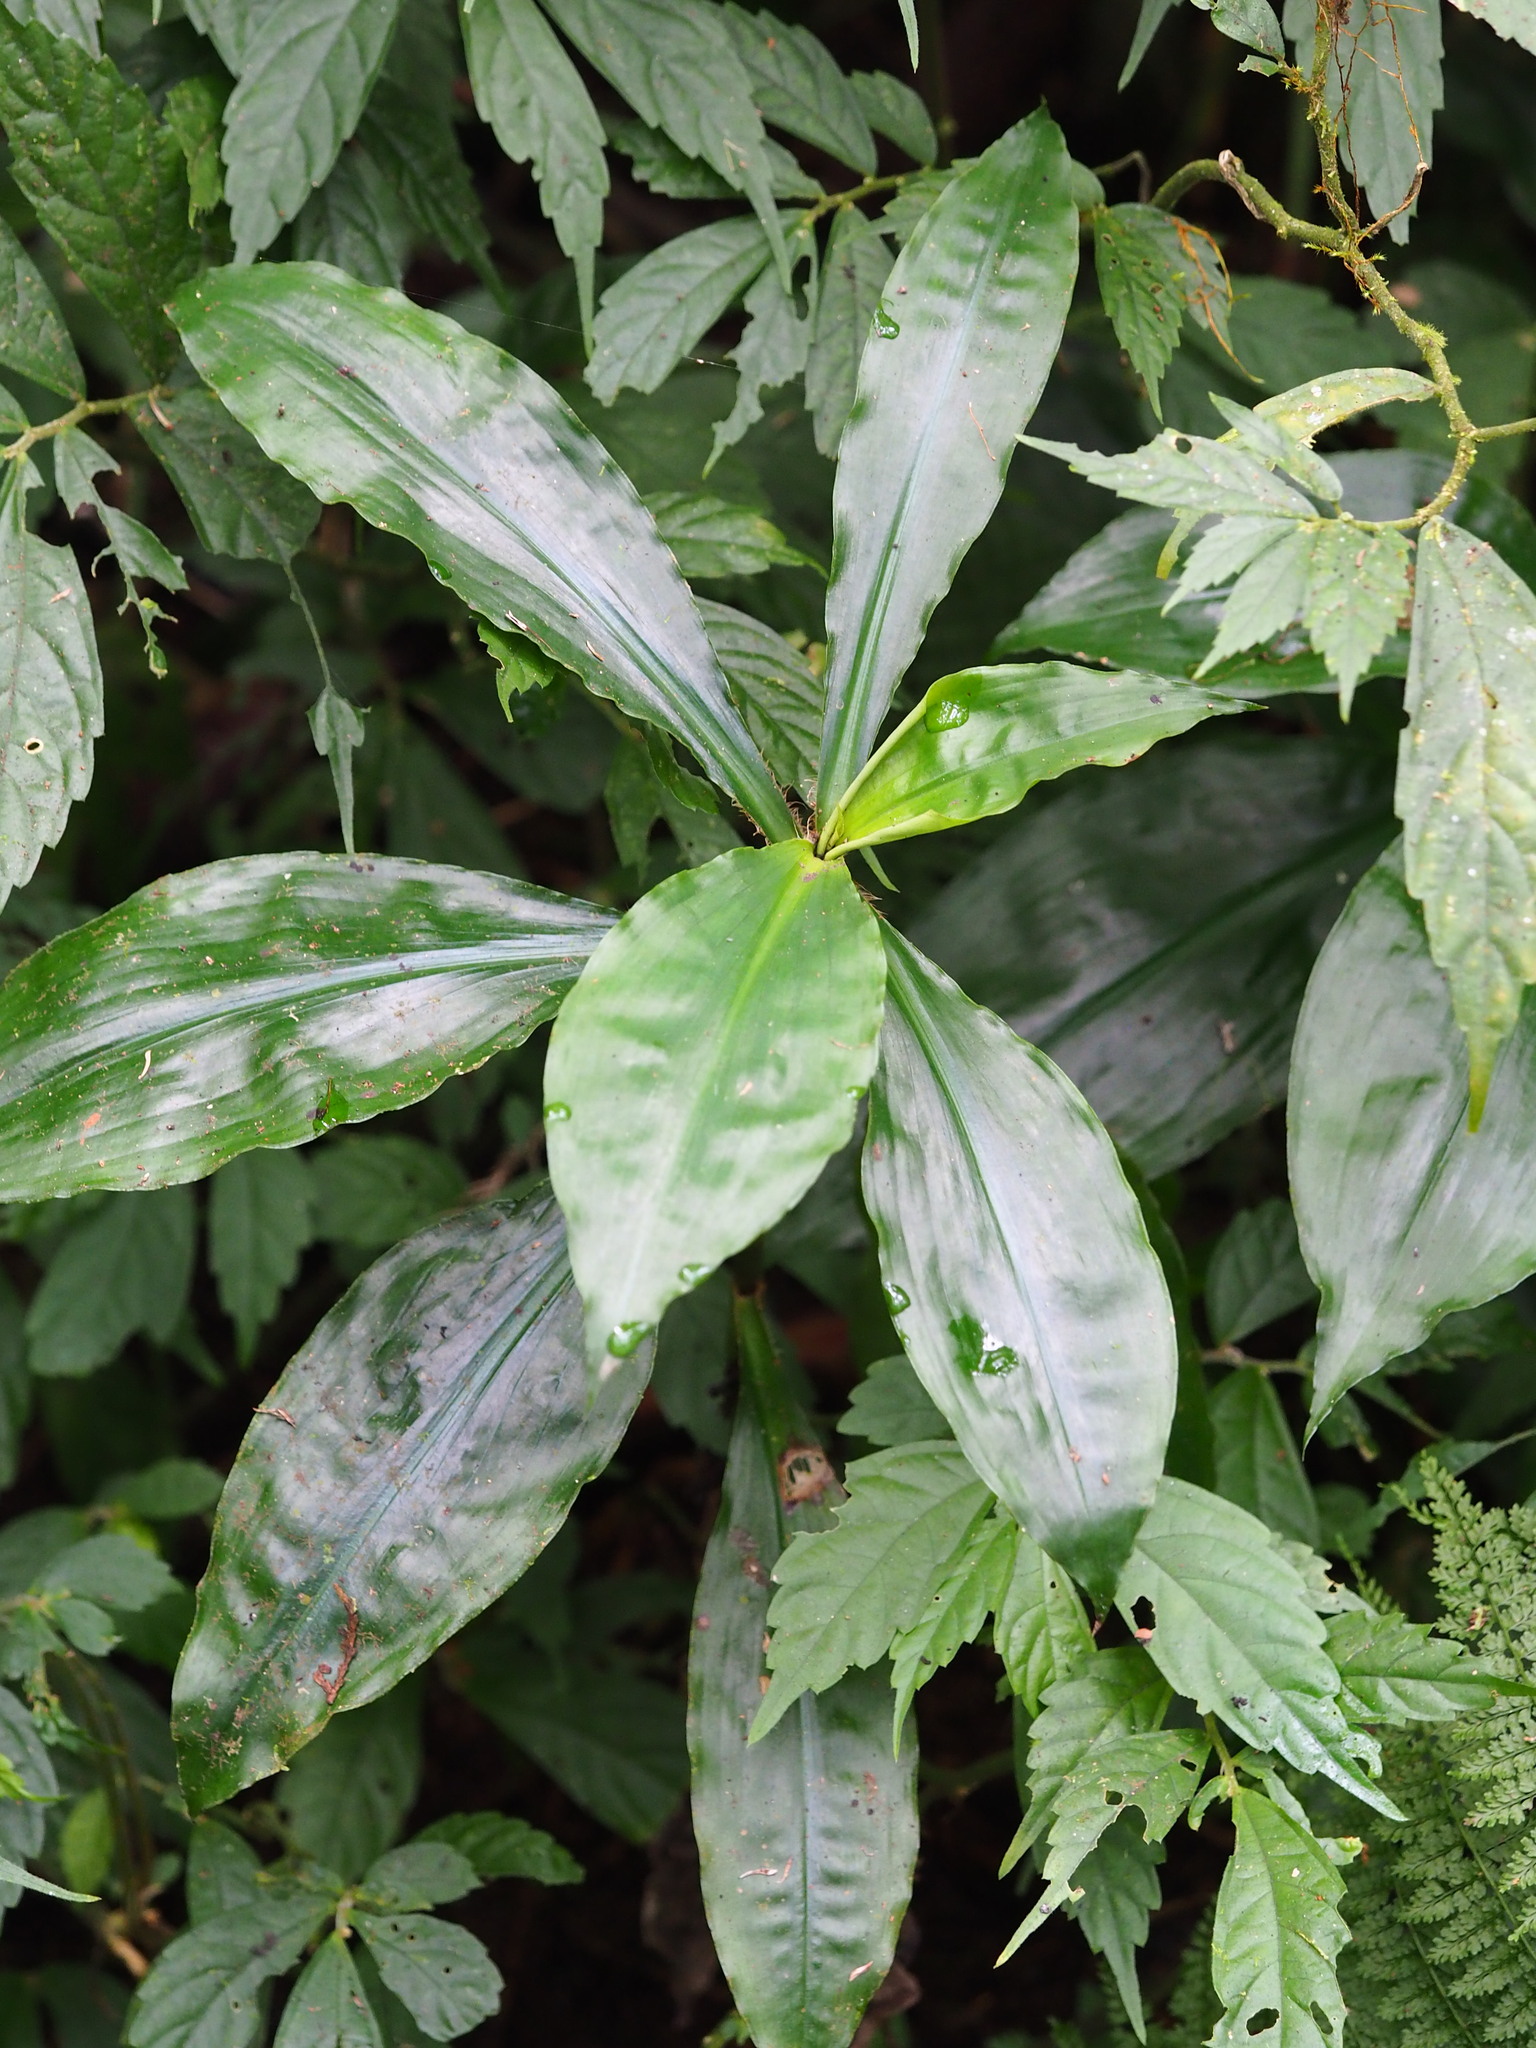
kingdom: Plantae
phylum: Tracheophyta
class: Liliopsida
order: Commelinales
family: Commelinaceae
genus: Amischotolype
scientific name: Amischotolype glabrata
